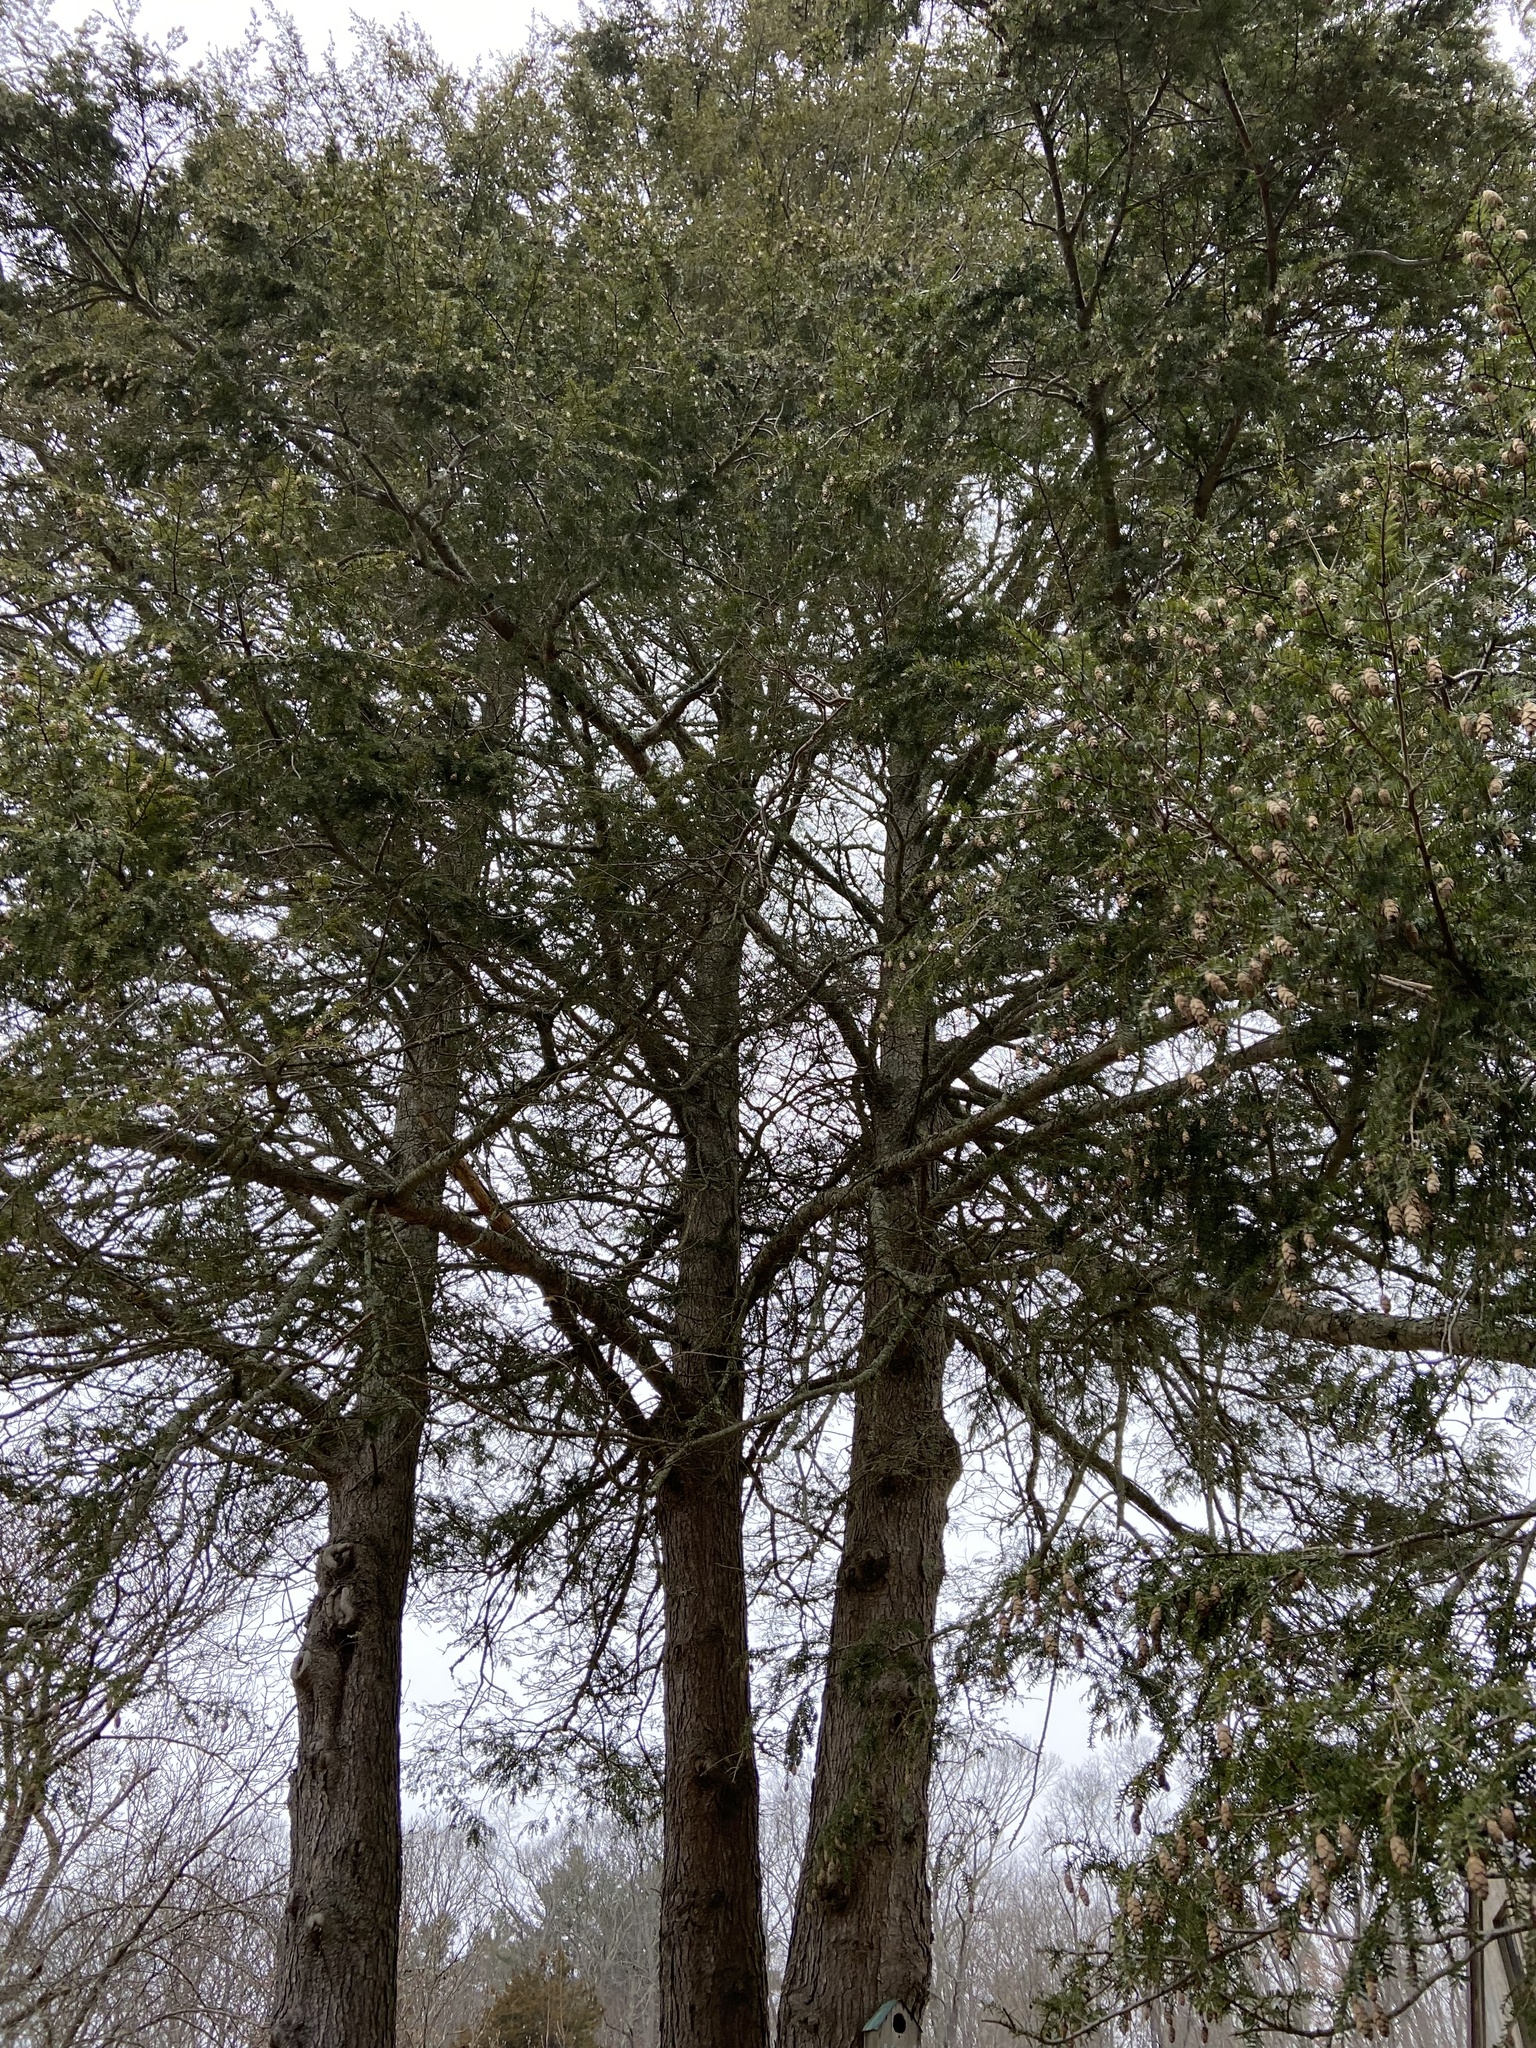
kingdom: Plantae
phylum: Tracheophyta
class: Pinopsida
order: Pinales
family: Pinaceae
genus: Tsuga
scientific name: Tsuga canadensis
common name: Eastern hemlock
